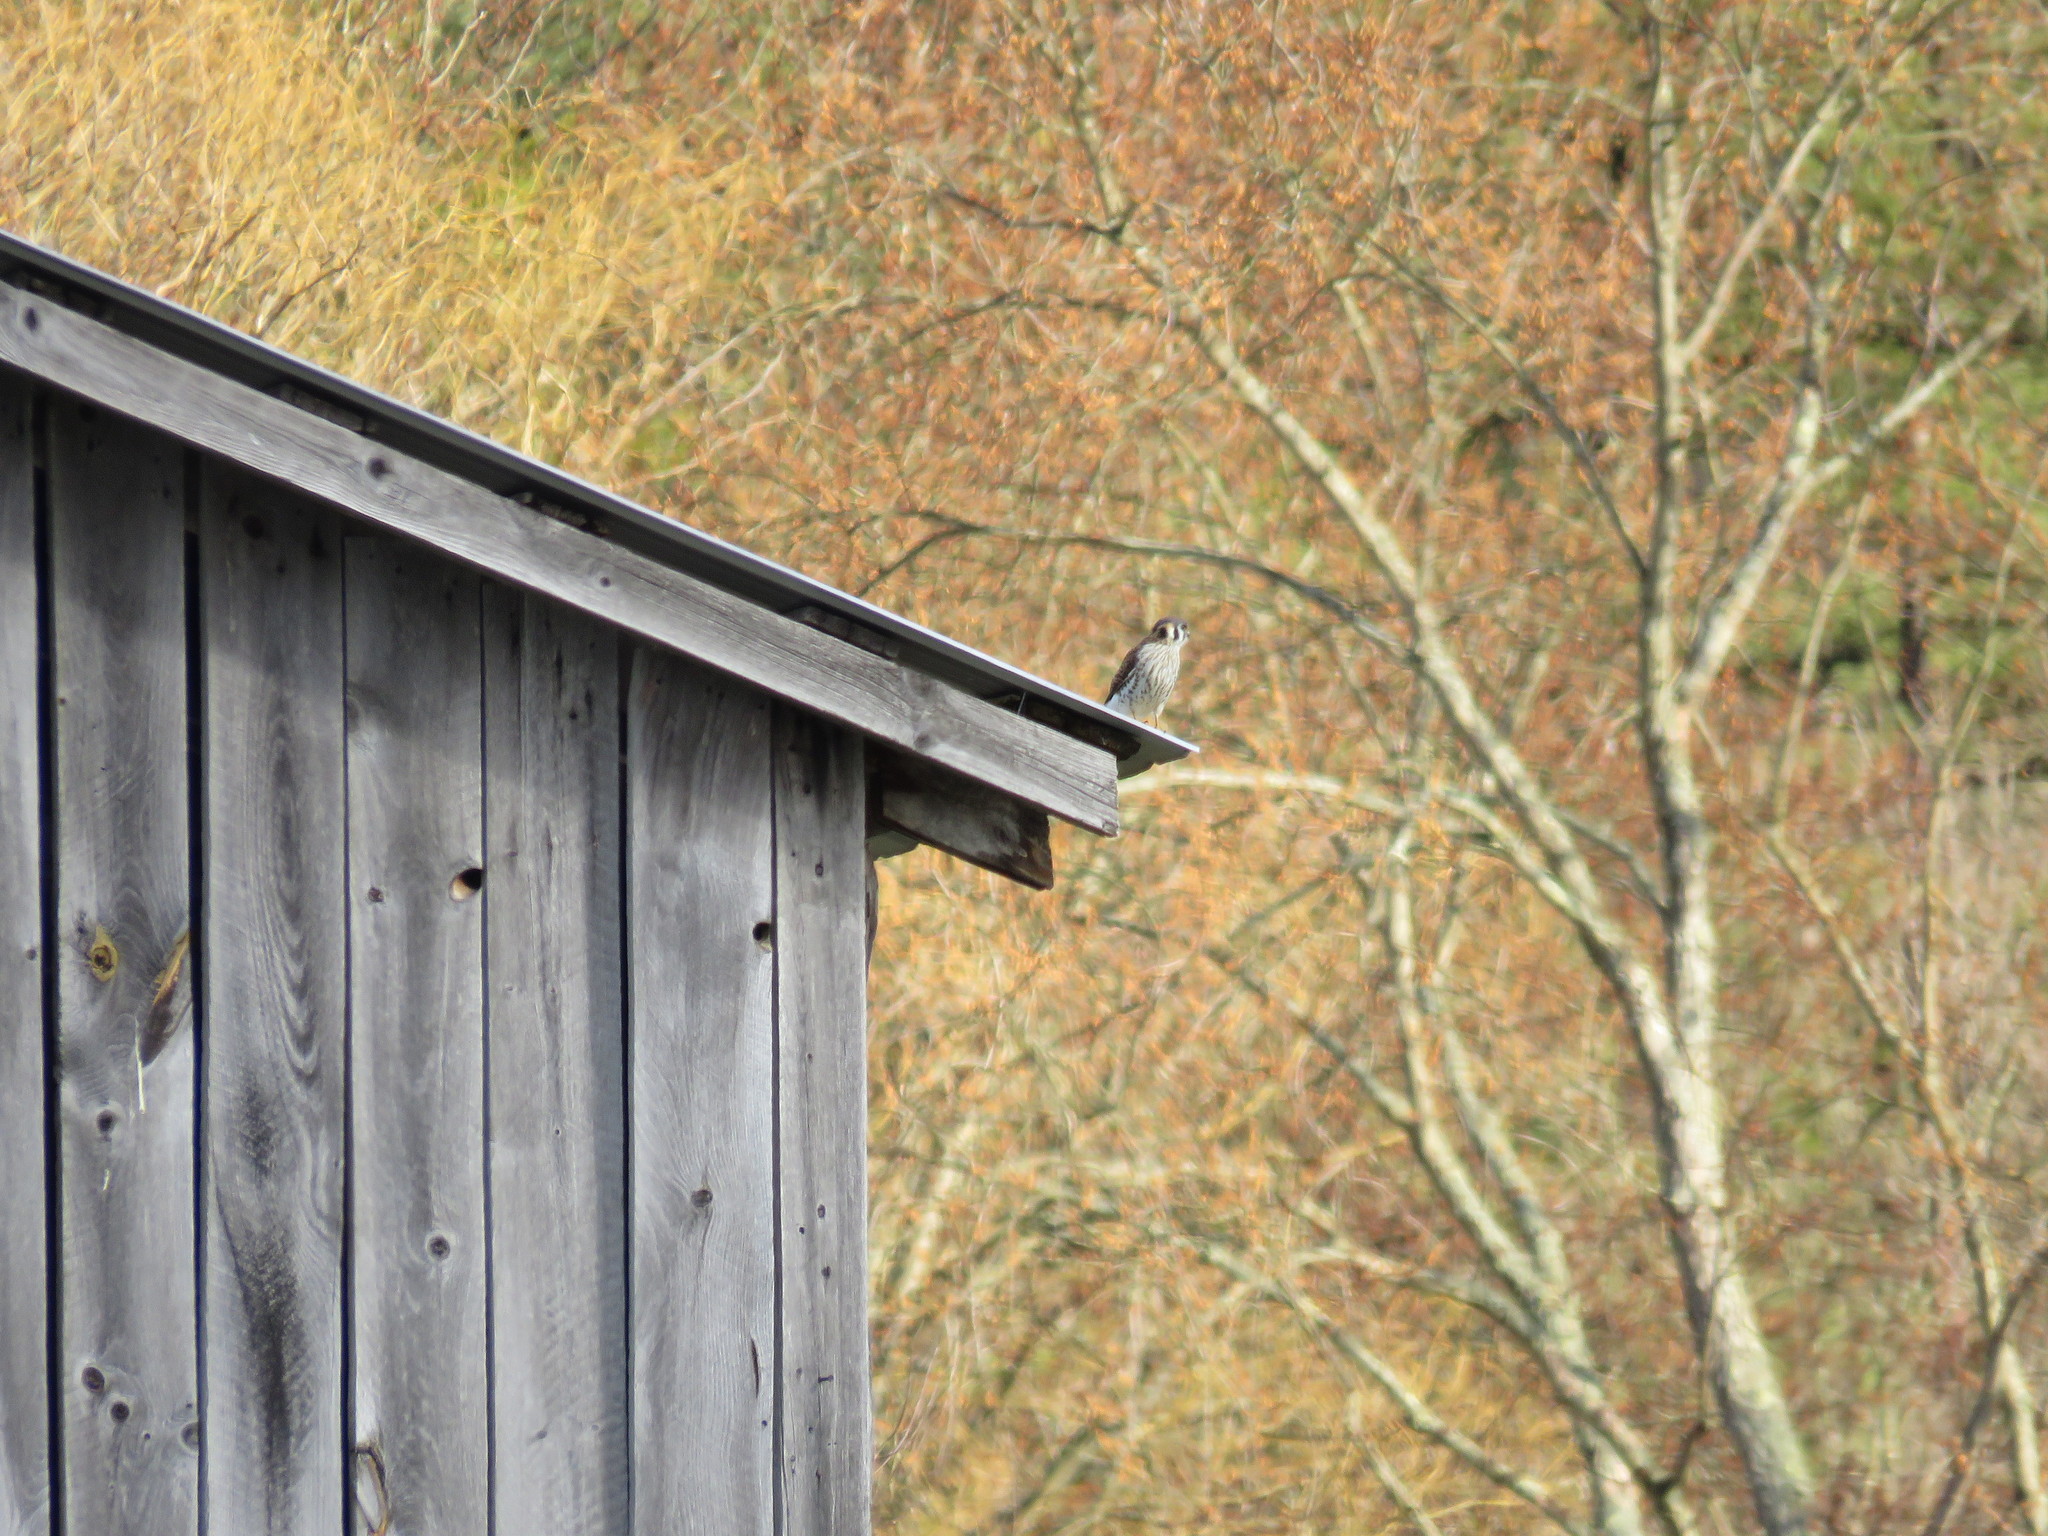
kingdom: Animalia
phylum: Chordata
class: Aves
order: Falconiformes
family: Falconidae
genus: Falco
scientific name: Falco sparverius
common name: American kestrel
